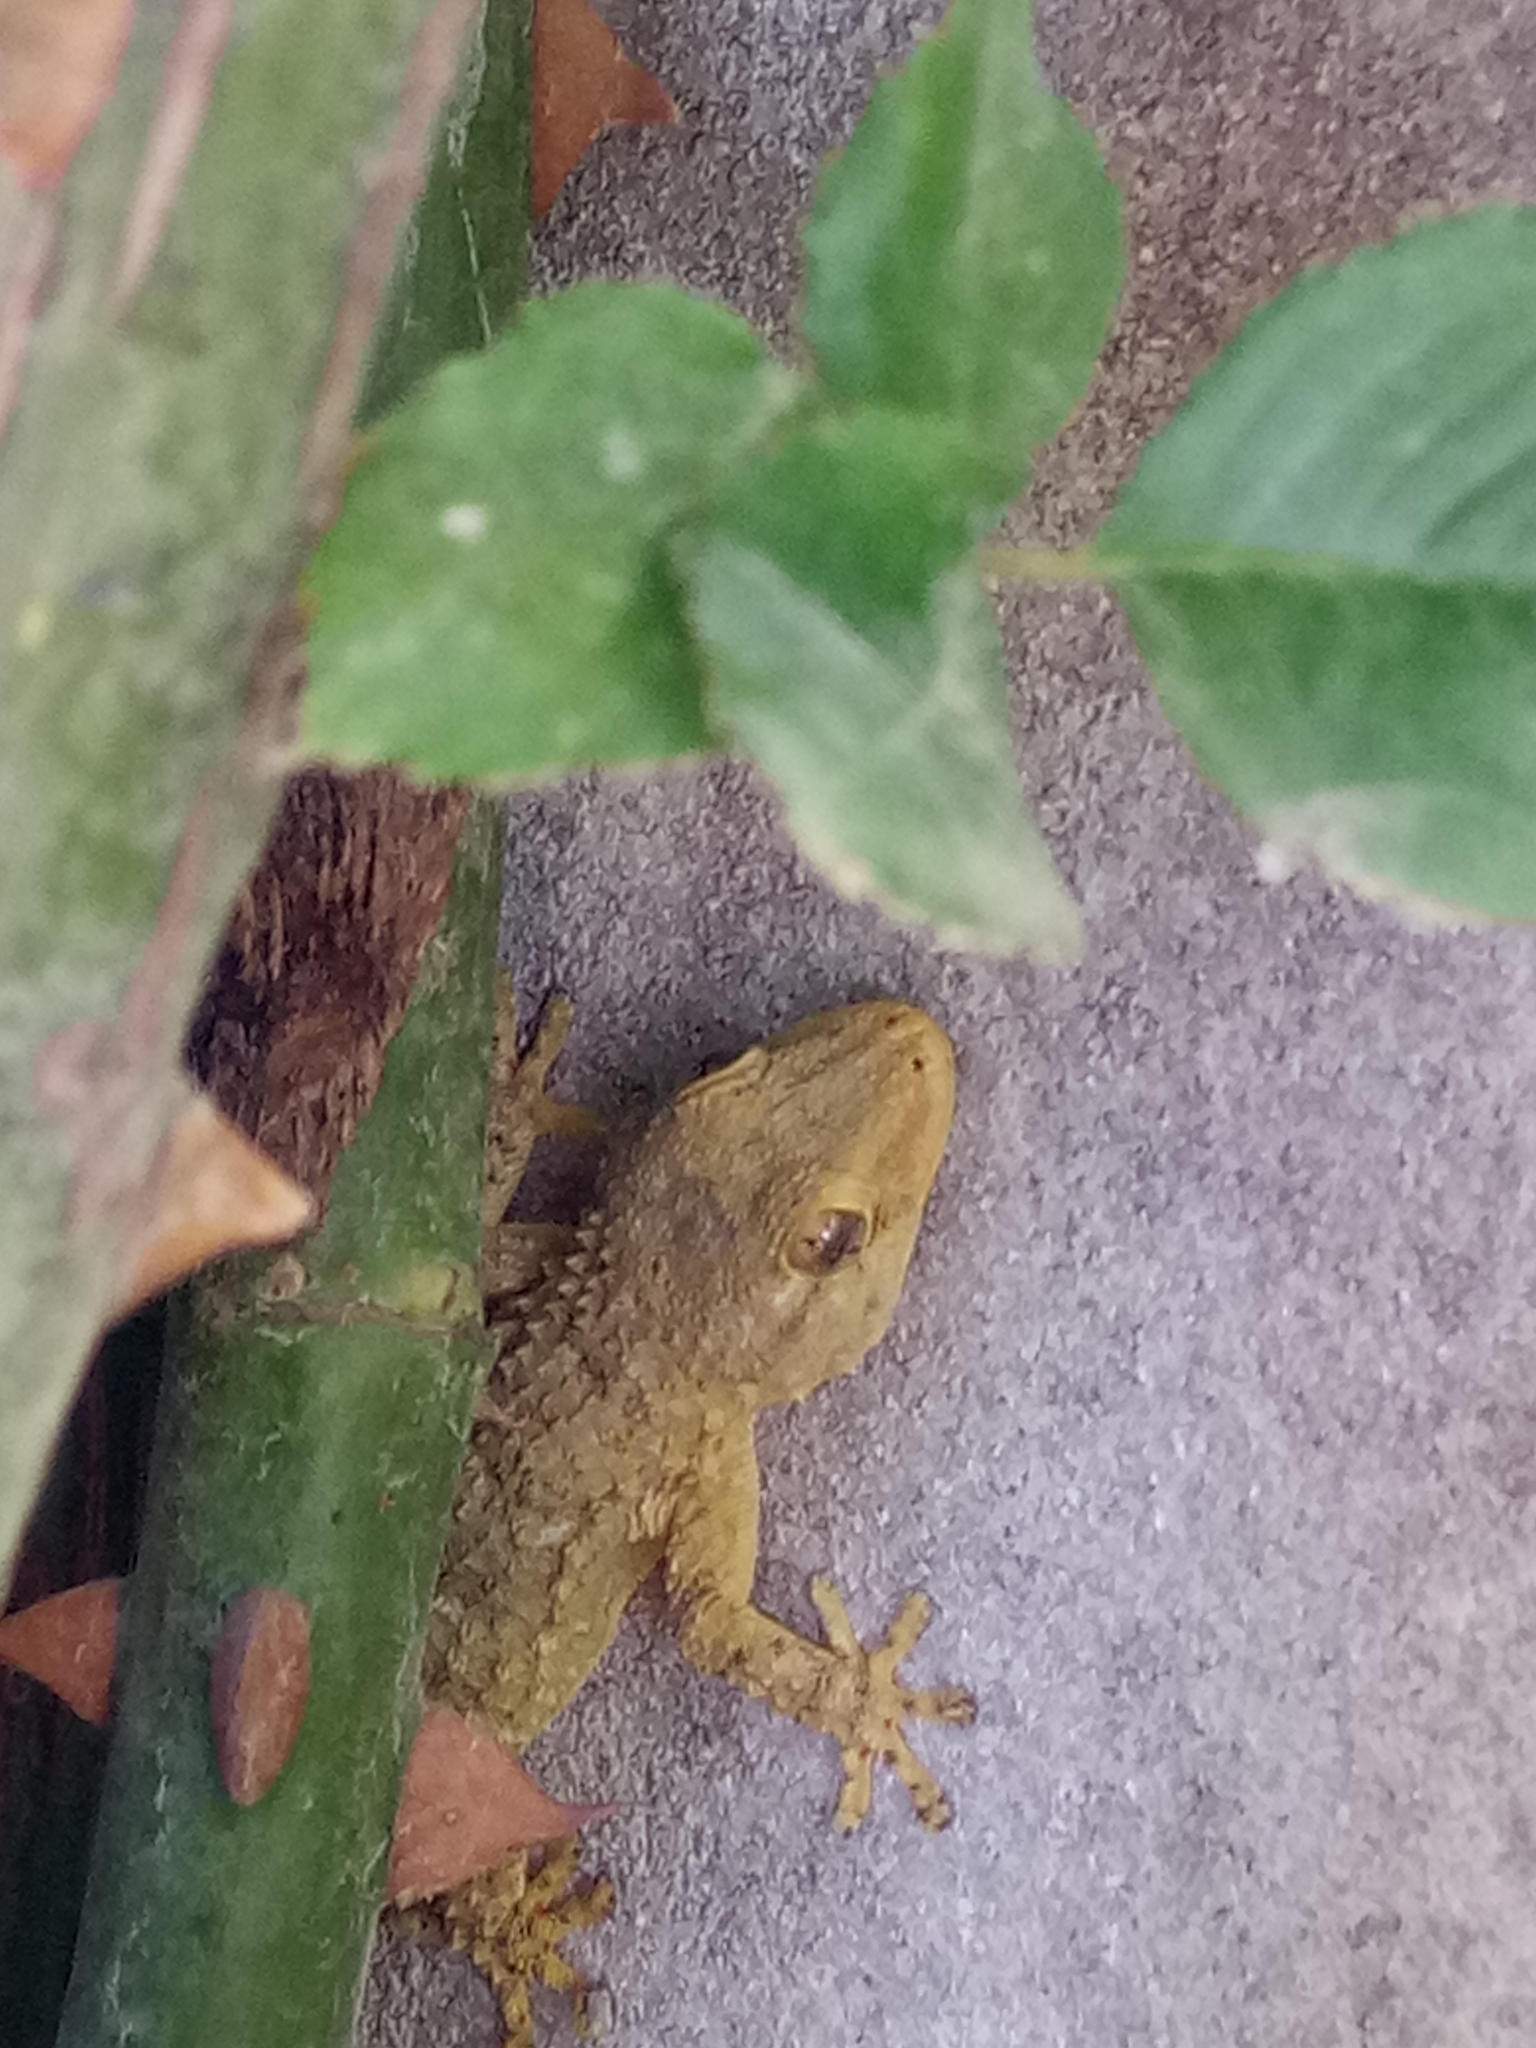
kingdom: Animalia
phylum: Chordata
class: Squamata
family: Phyllodactylidae
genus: Tarentola
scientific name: Tarentola mauritanica
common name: Moorish gecko
